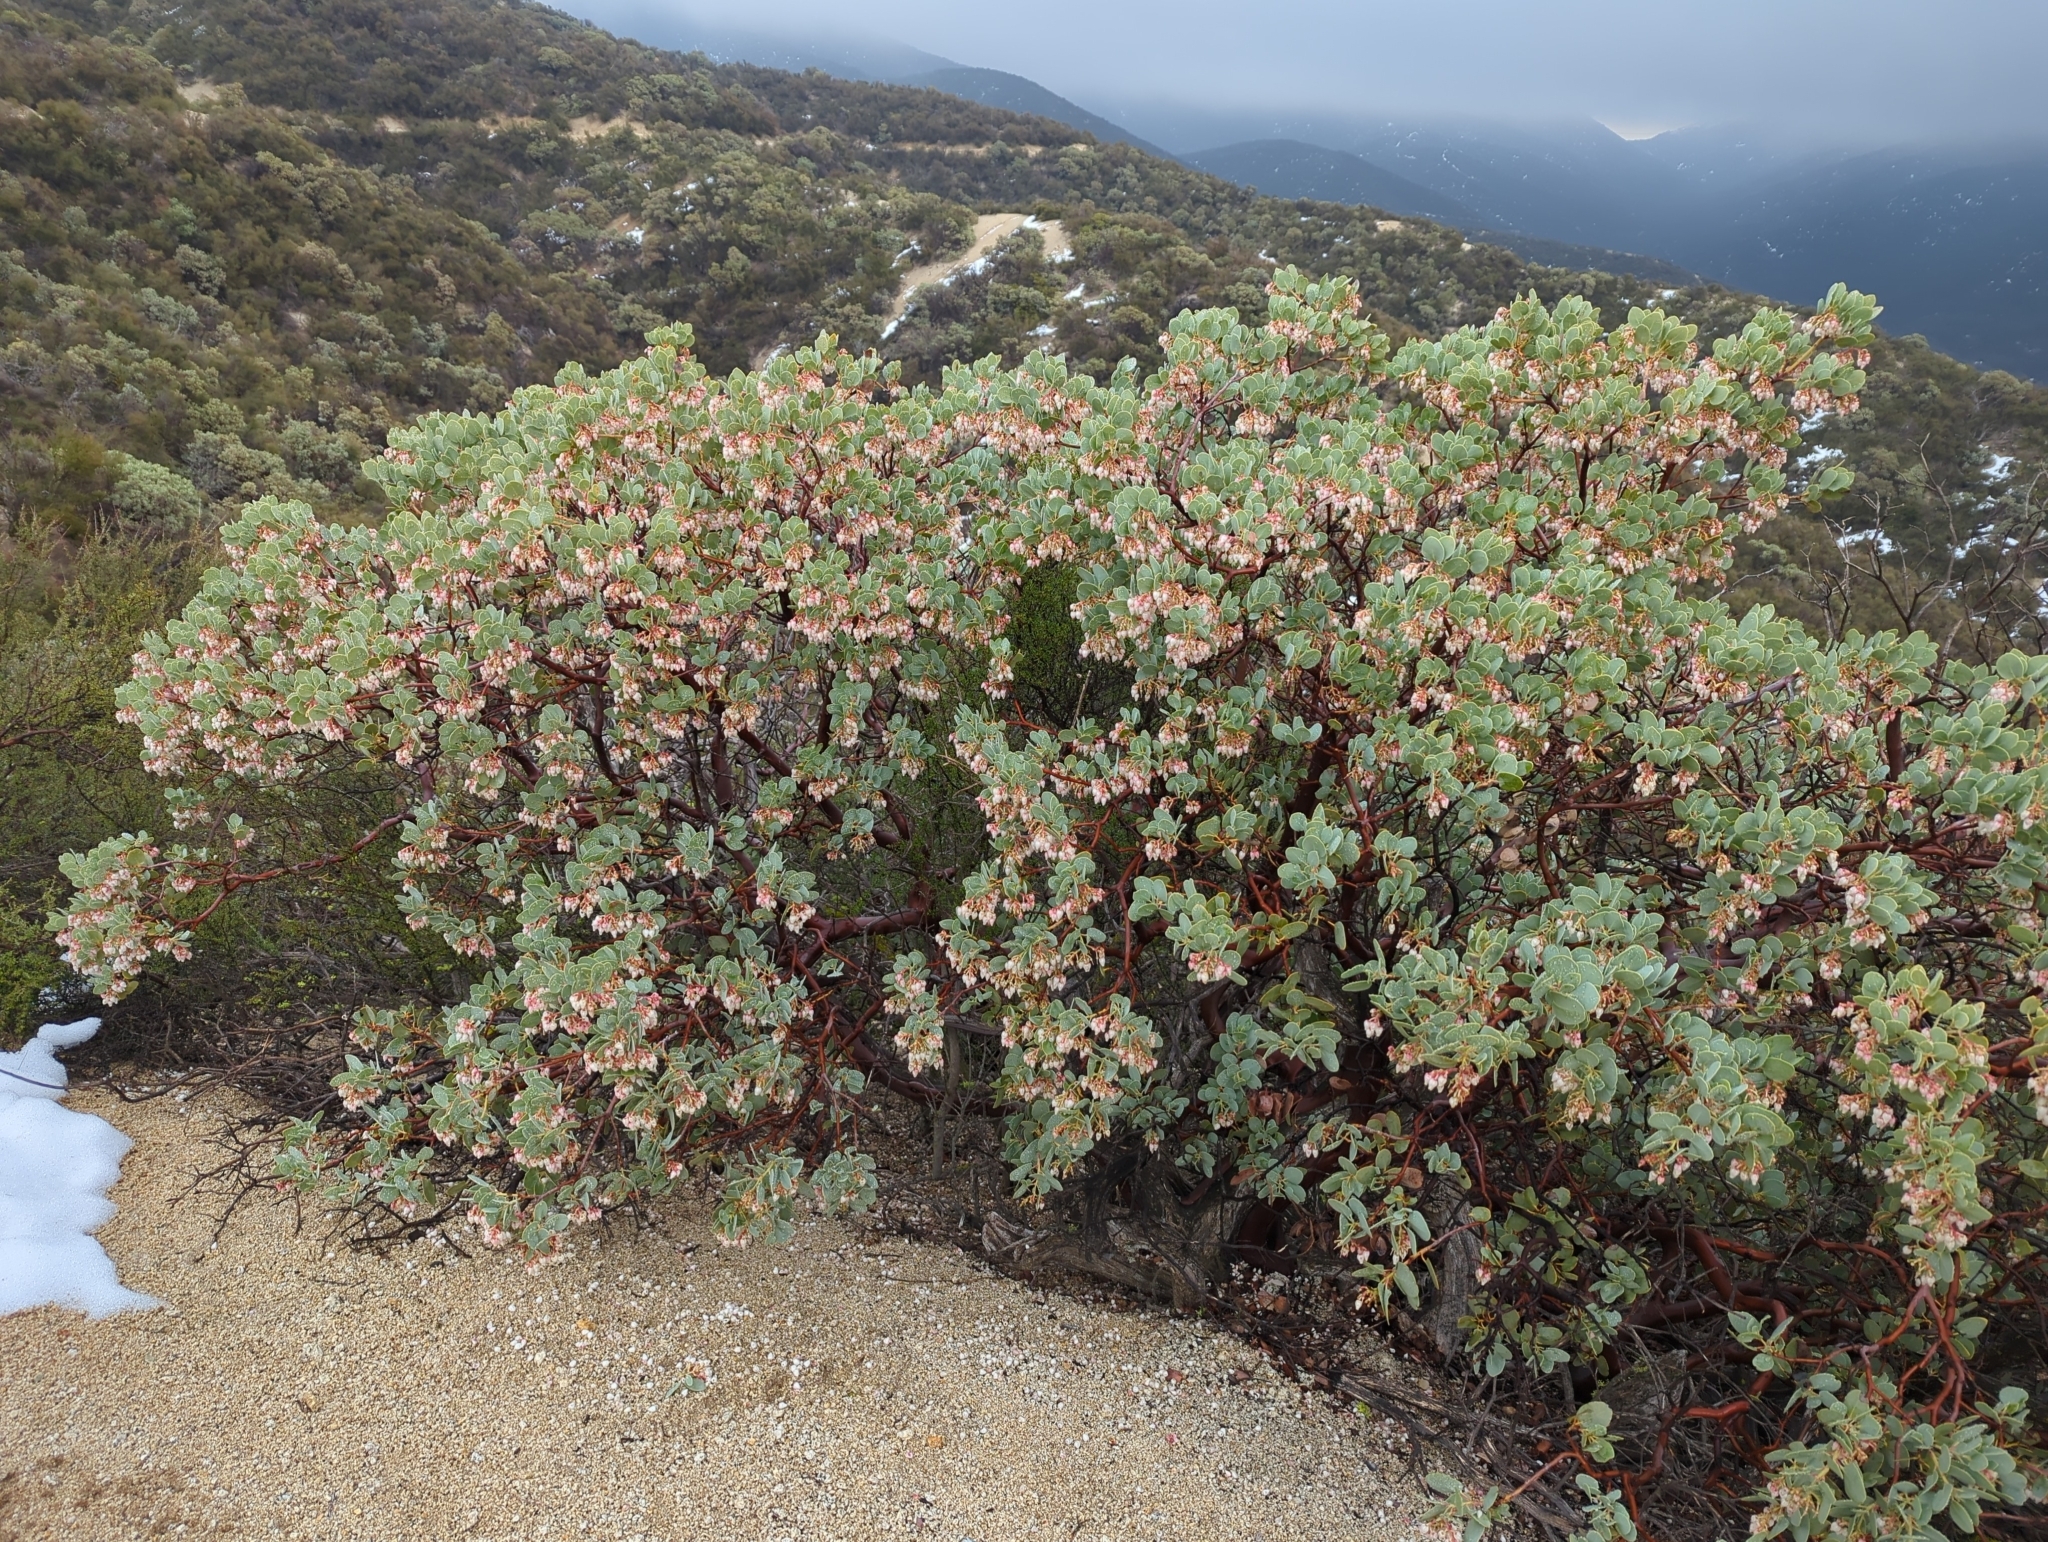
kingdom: Plantae
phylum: Tracheophyta
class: Magnoliopsida
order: Ericales
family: Ericaceae
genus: Arctostaphylos
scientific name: Arctostaphylos glauca
